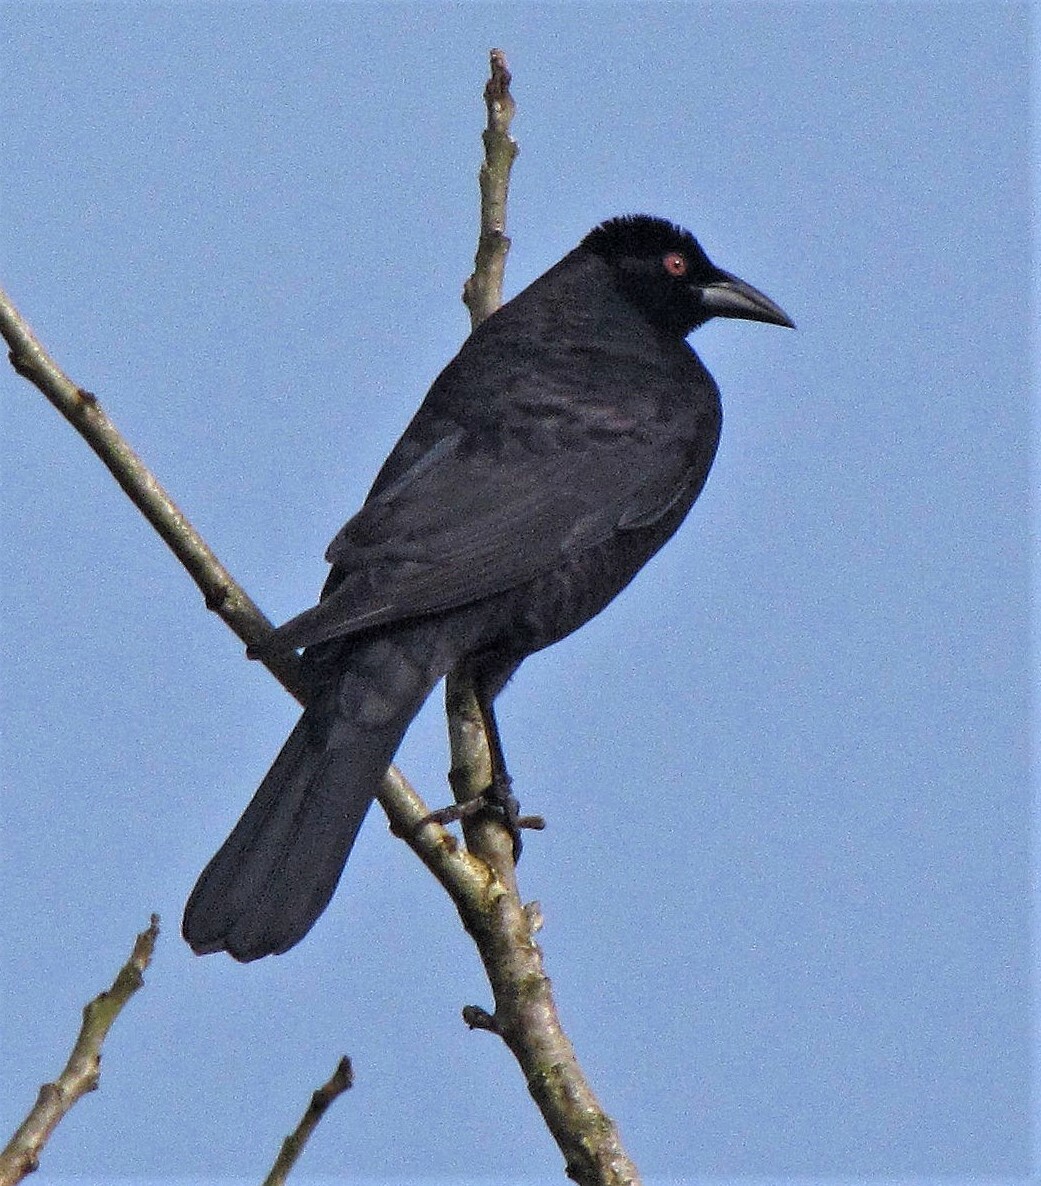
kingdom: Animalia
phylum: Chordata
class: Aves
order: Passeriformes
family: Icteridae
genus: Molothrus
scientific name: Molothrus oryzivorus
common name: Giant cowbird
